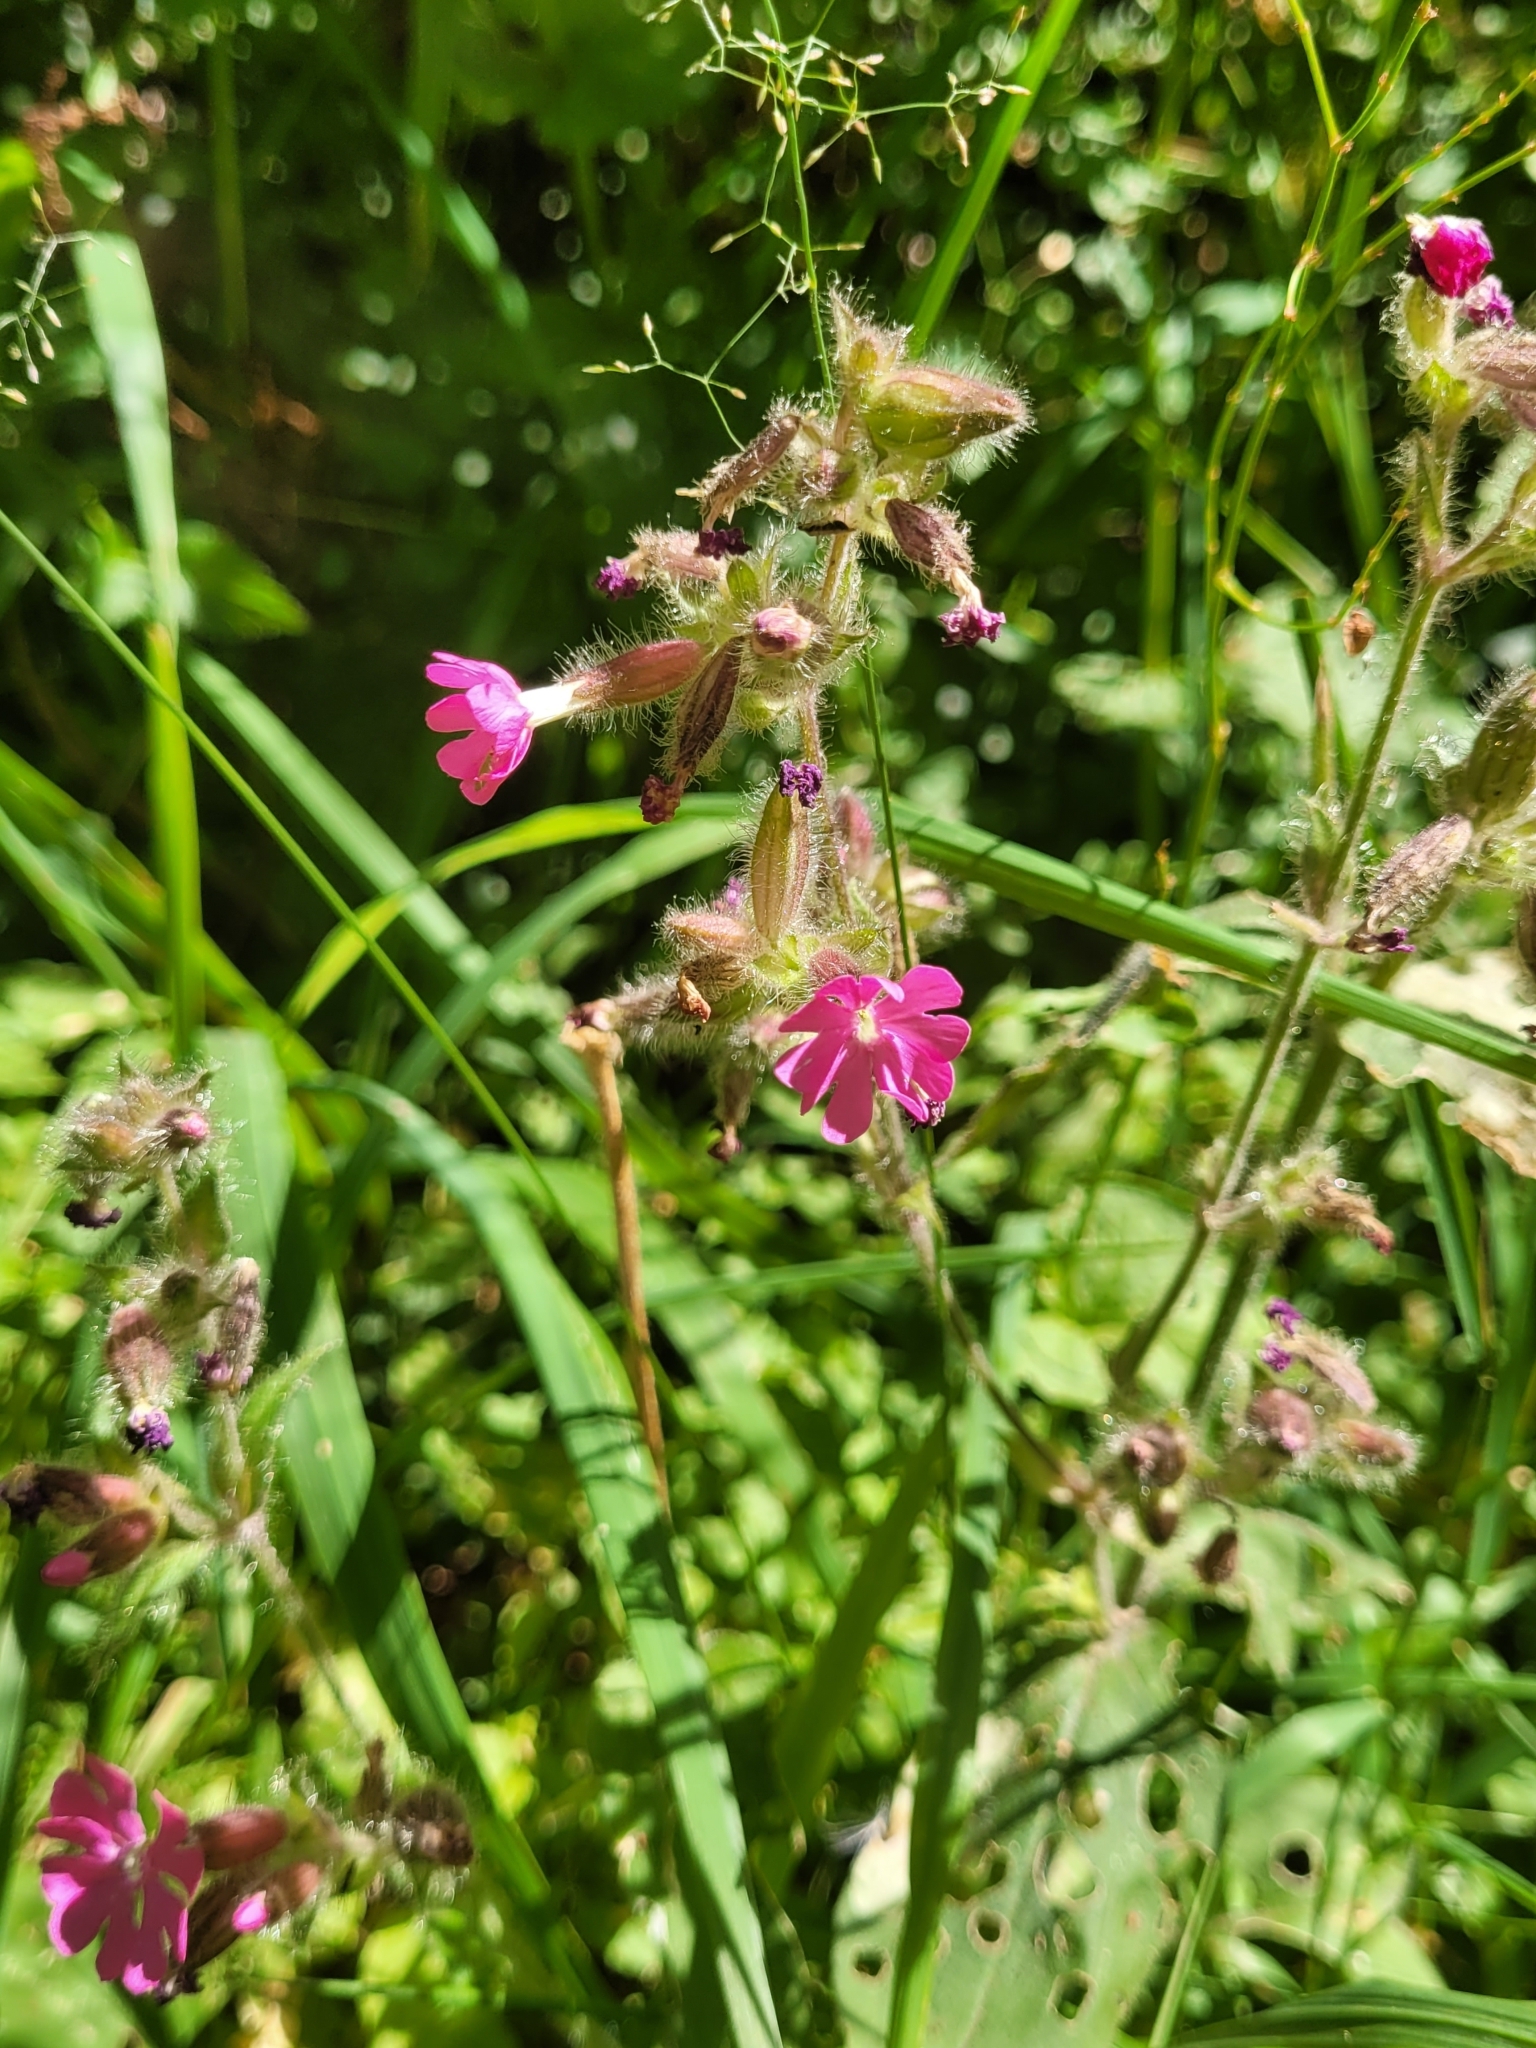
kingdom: Plantae
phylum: Tracheophyta
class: Magnoliopsida
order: Caryophyllales
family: Caryophyllaceae
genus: Silene
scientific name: Silene dioica
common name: Red campion
